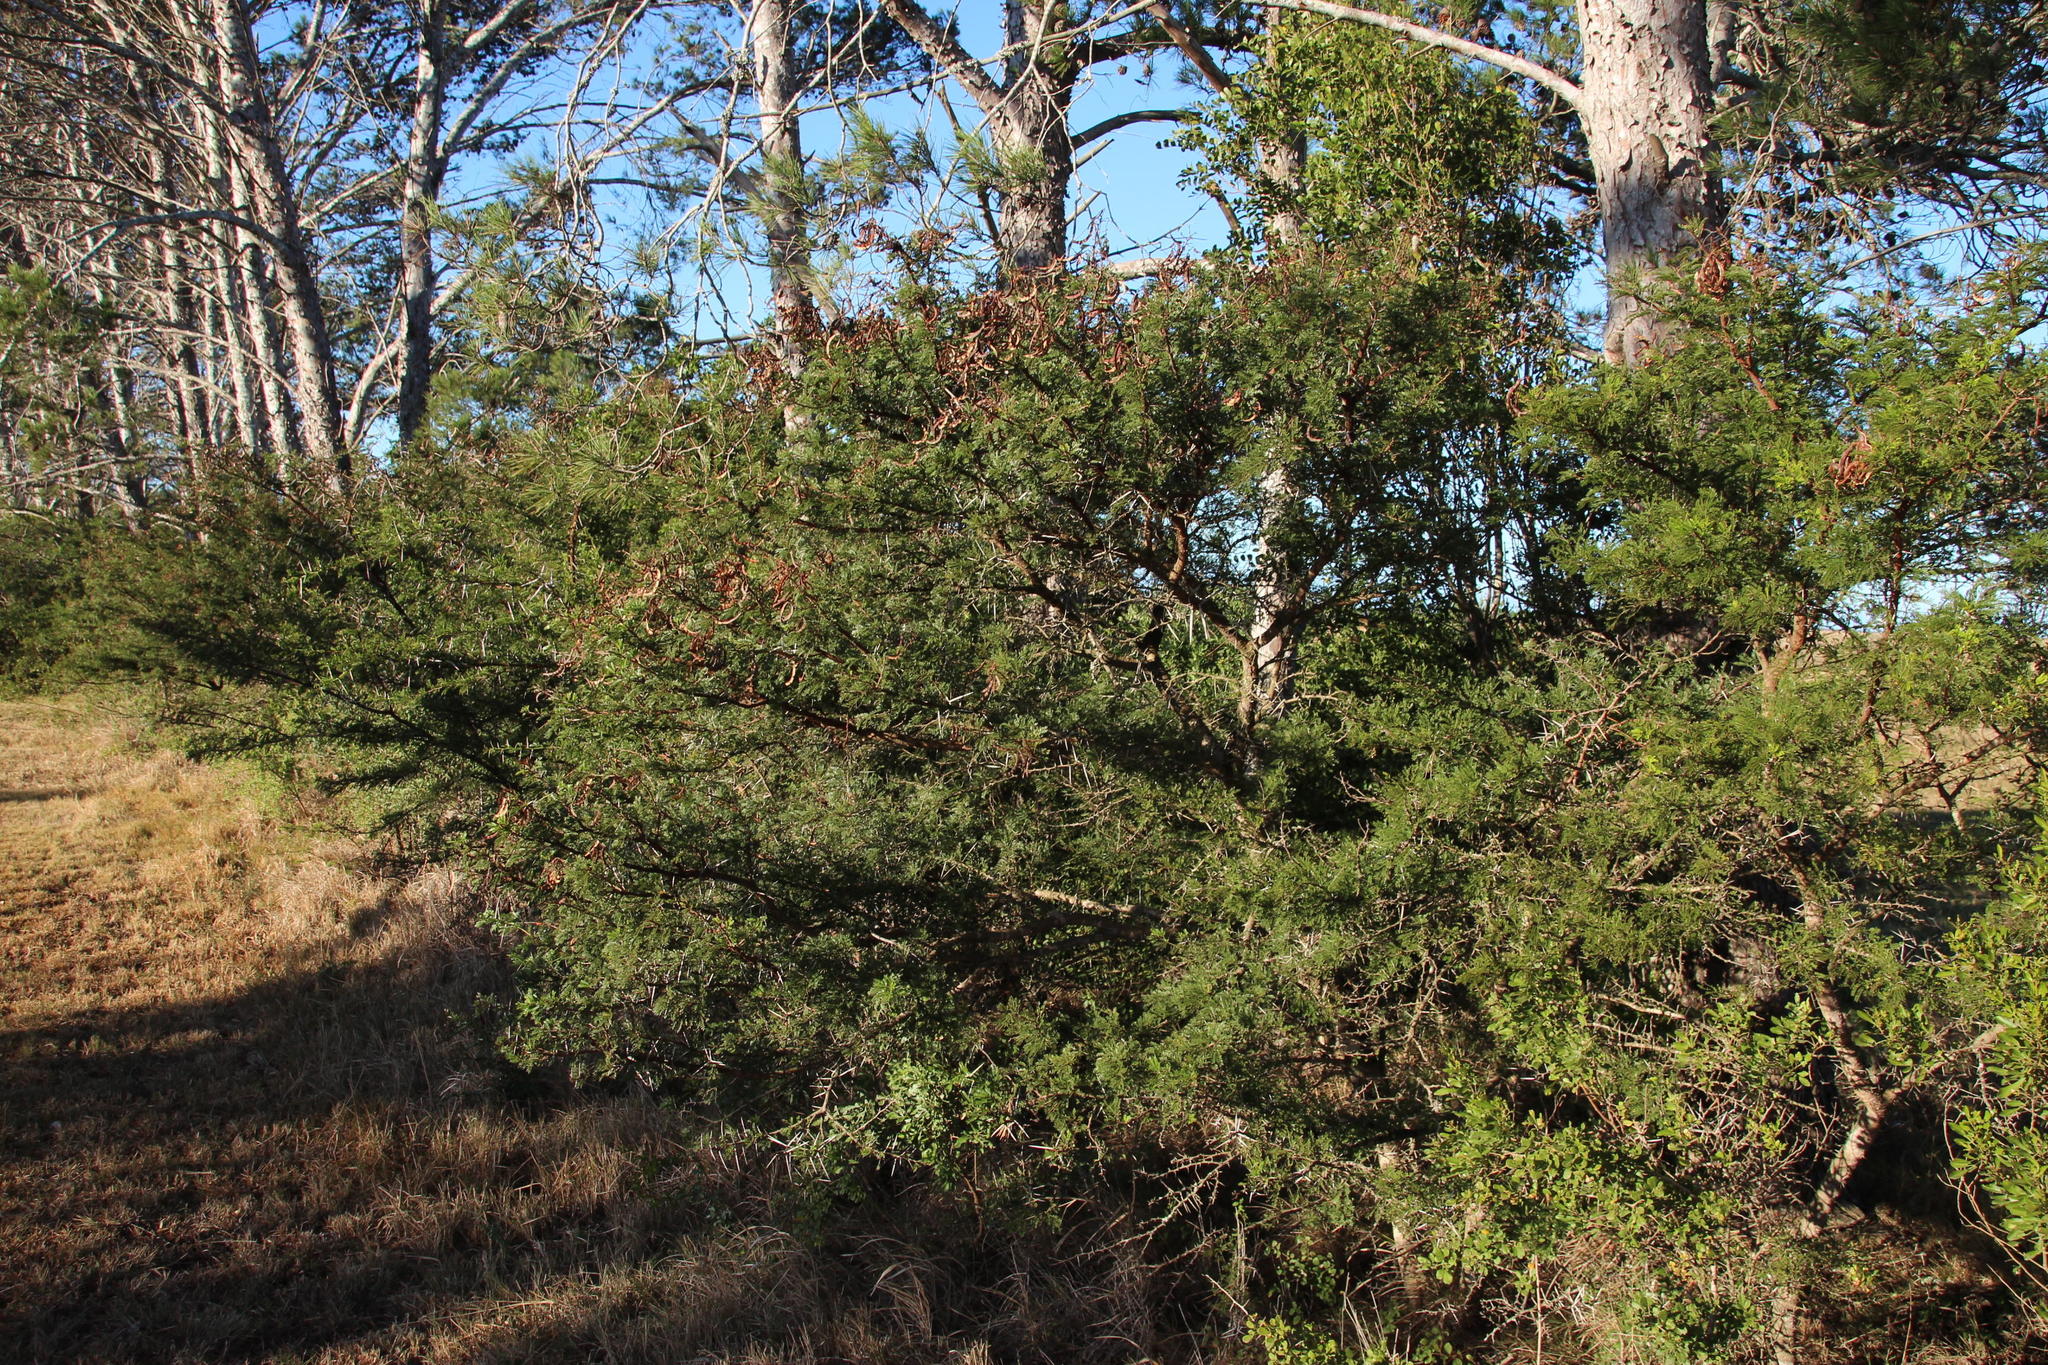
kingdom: Plantae
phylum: Tracheophyta
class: Magnoliopsida
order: Fabales
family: Fabaceae
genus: Vachellia
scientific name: Vachellia karroo
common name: Sweet thorn
